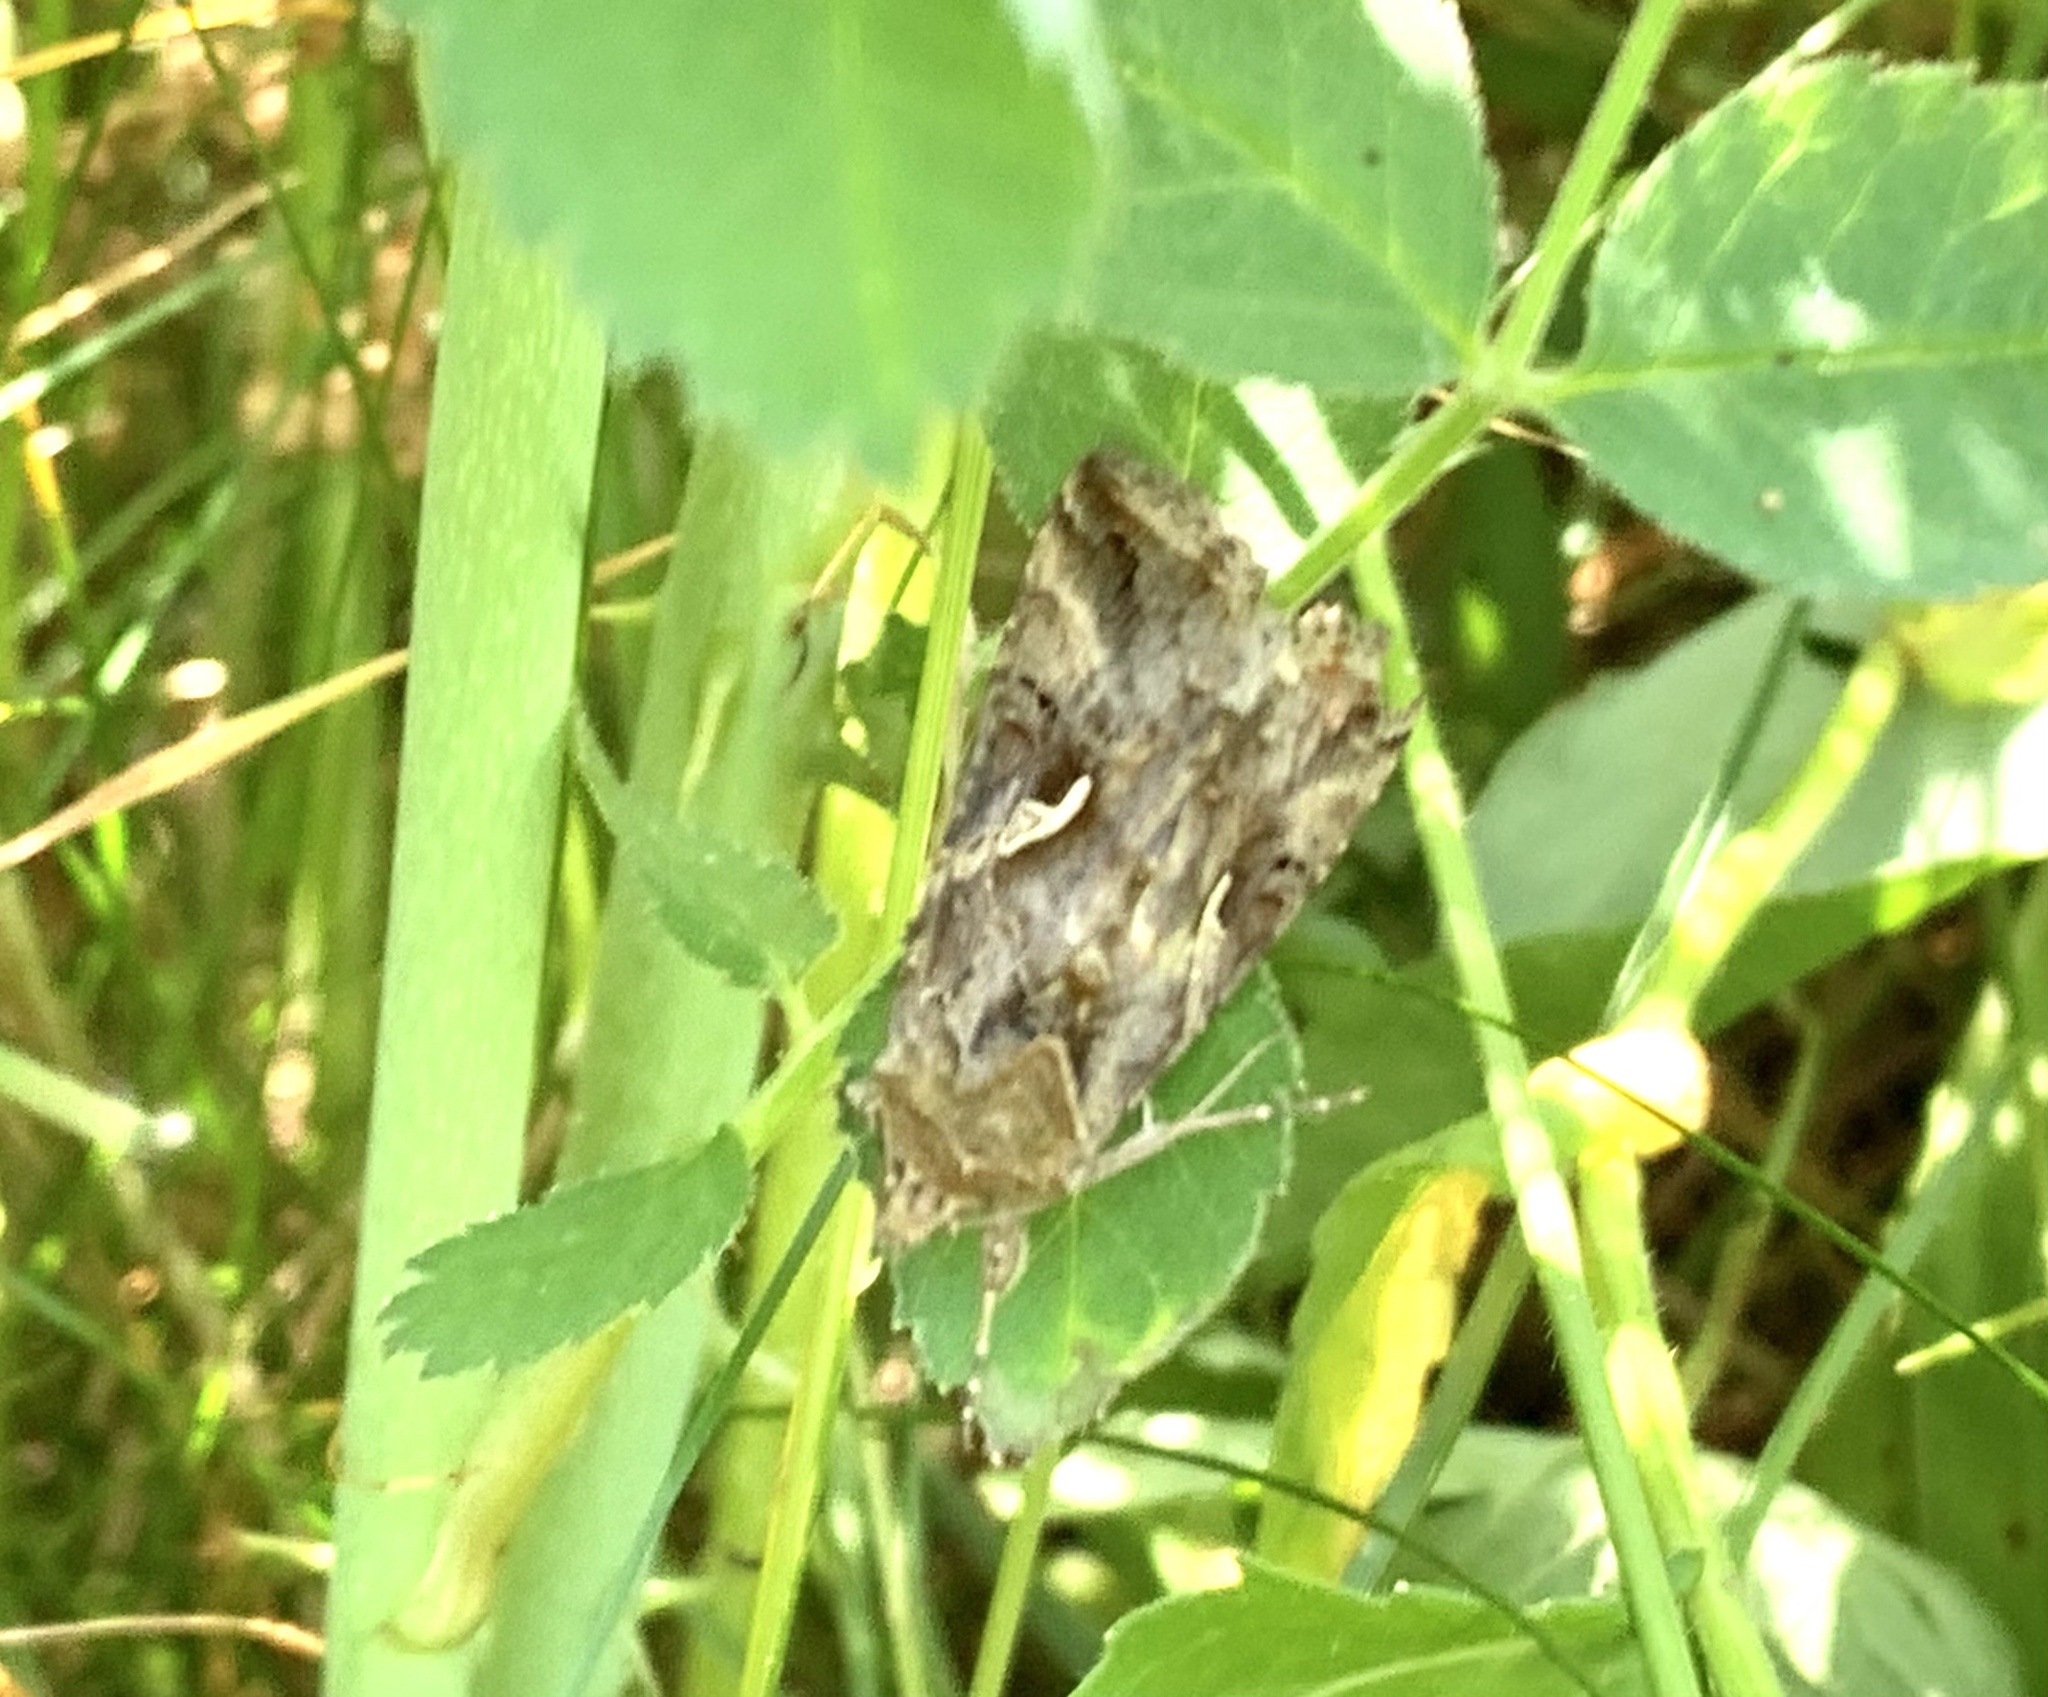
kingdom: Animalia
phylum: Arthropoda
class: Insecta
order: Lepidoptera
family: Noctuidae
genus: Autographa
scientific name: Autographa gamma
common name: Silver y
